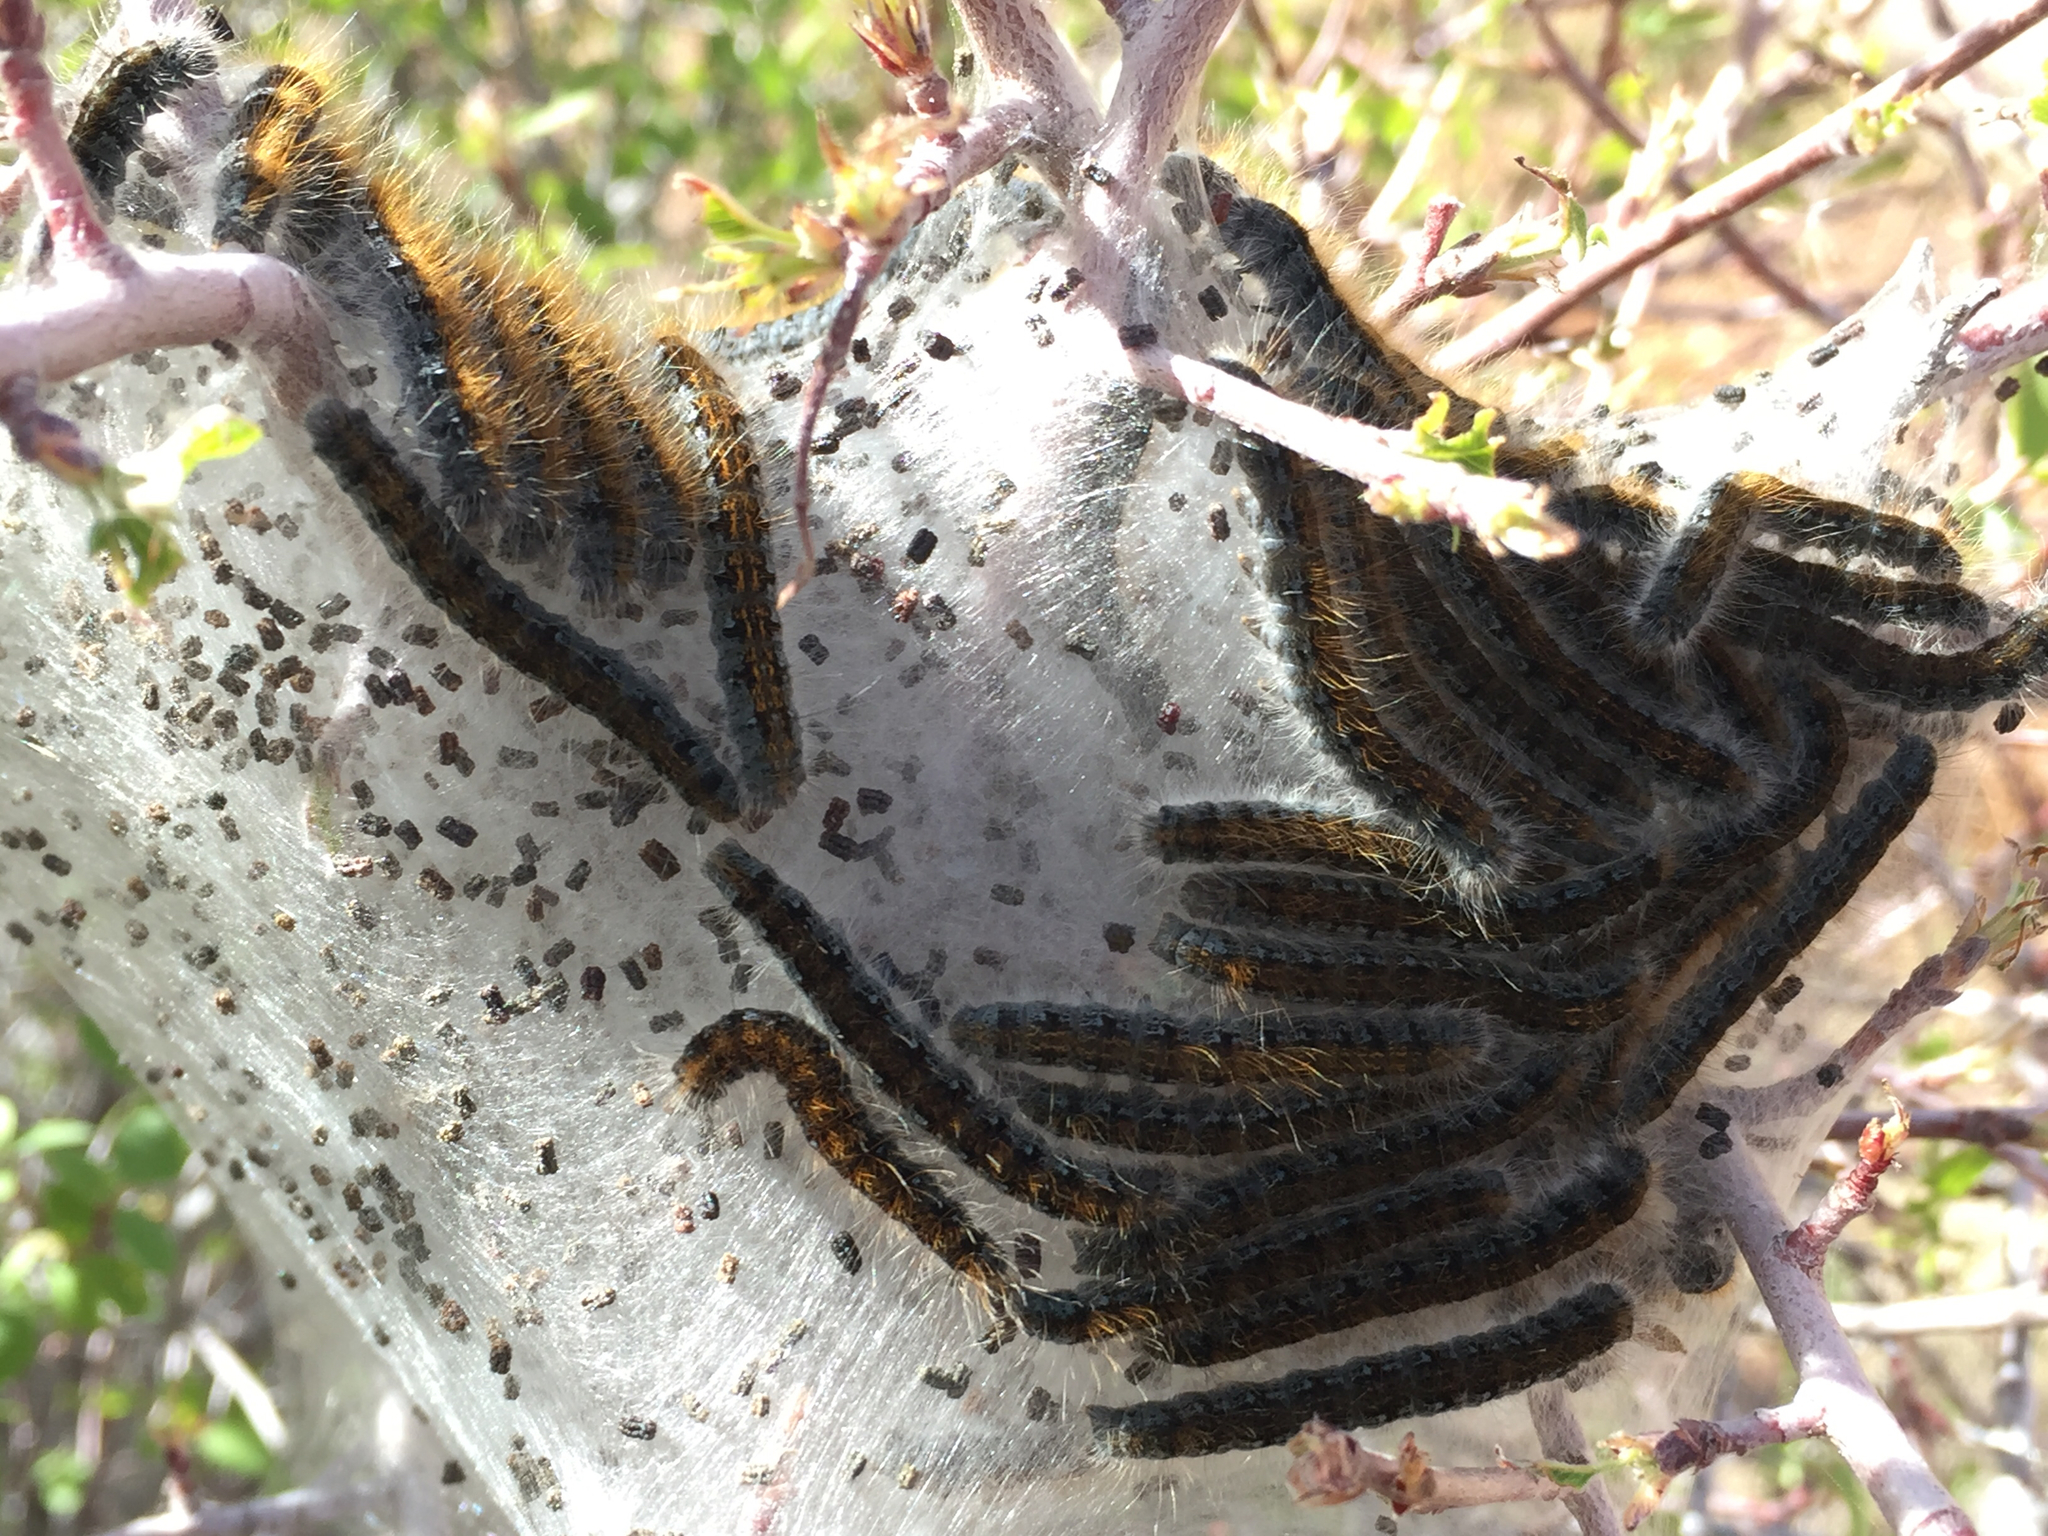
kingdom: Animalia
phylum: Arthropoda
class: Insecta
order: Lepidoptera
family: Lasiocampidae
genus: Malacosoma
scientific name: Malacosoma californica
